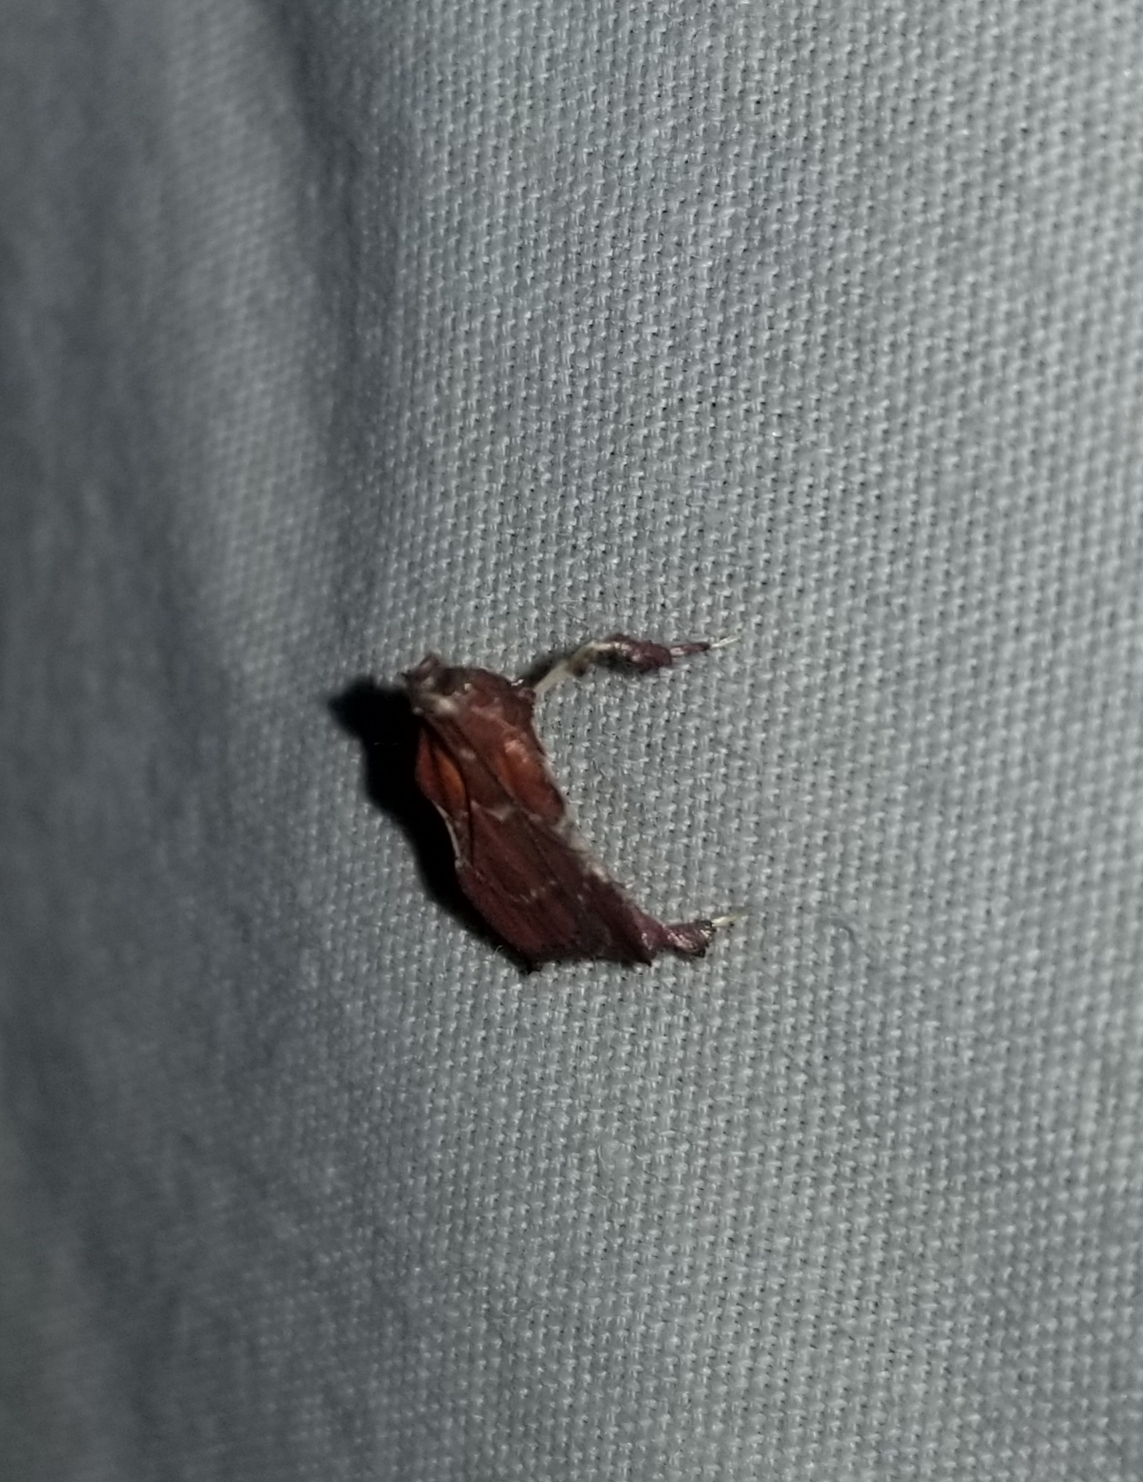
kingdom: Animalia
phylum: Arthropoda
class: Insecta
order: Lepidoptera
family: Pyralidae
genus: Galasa
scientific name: Galasa nigrinodis
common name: Boxwood leaftier moth
